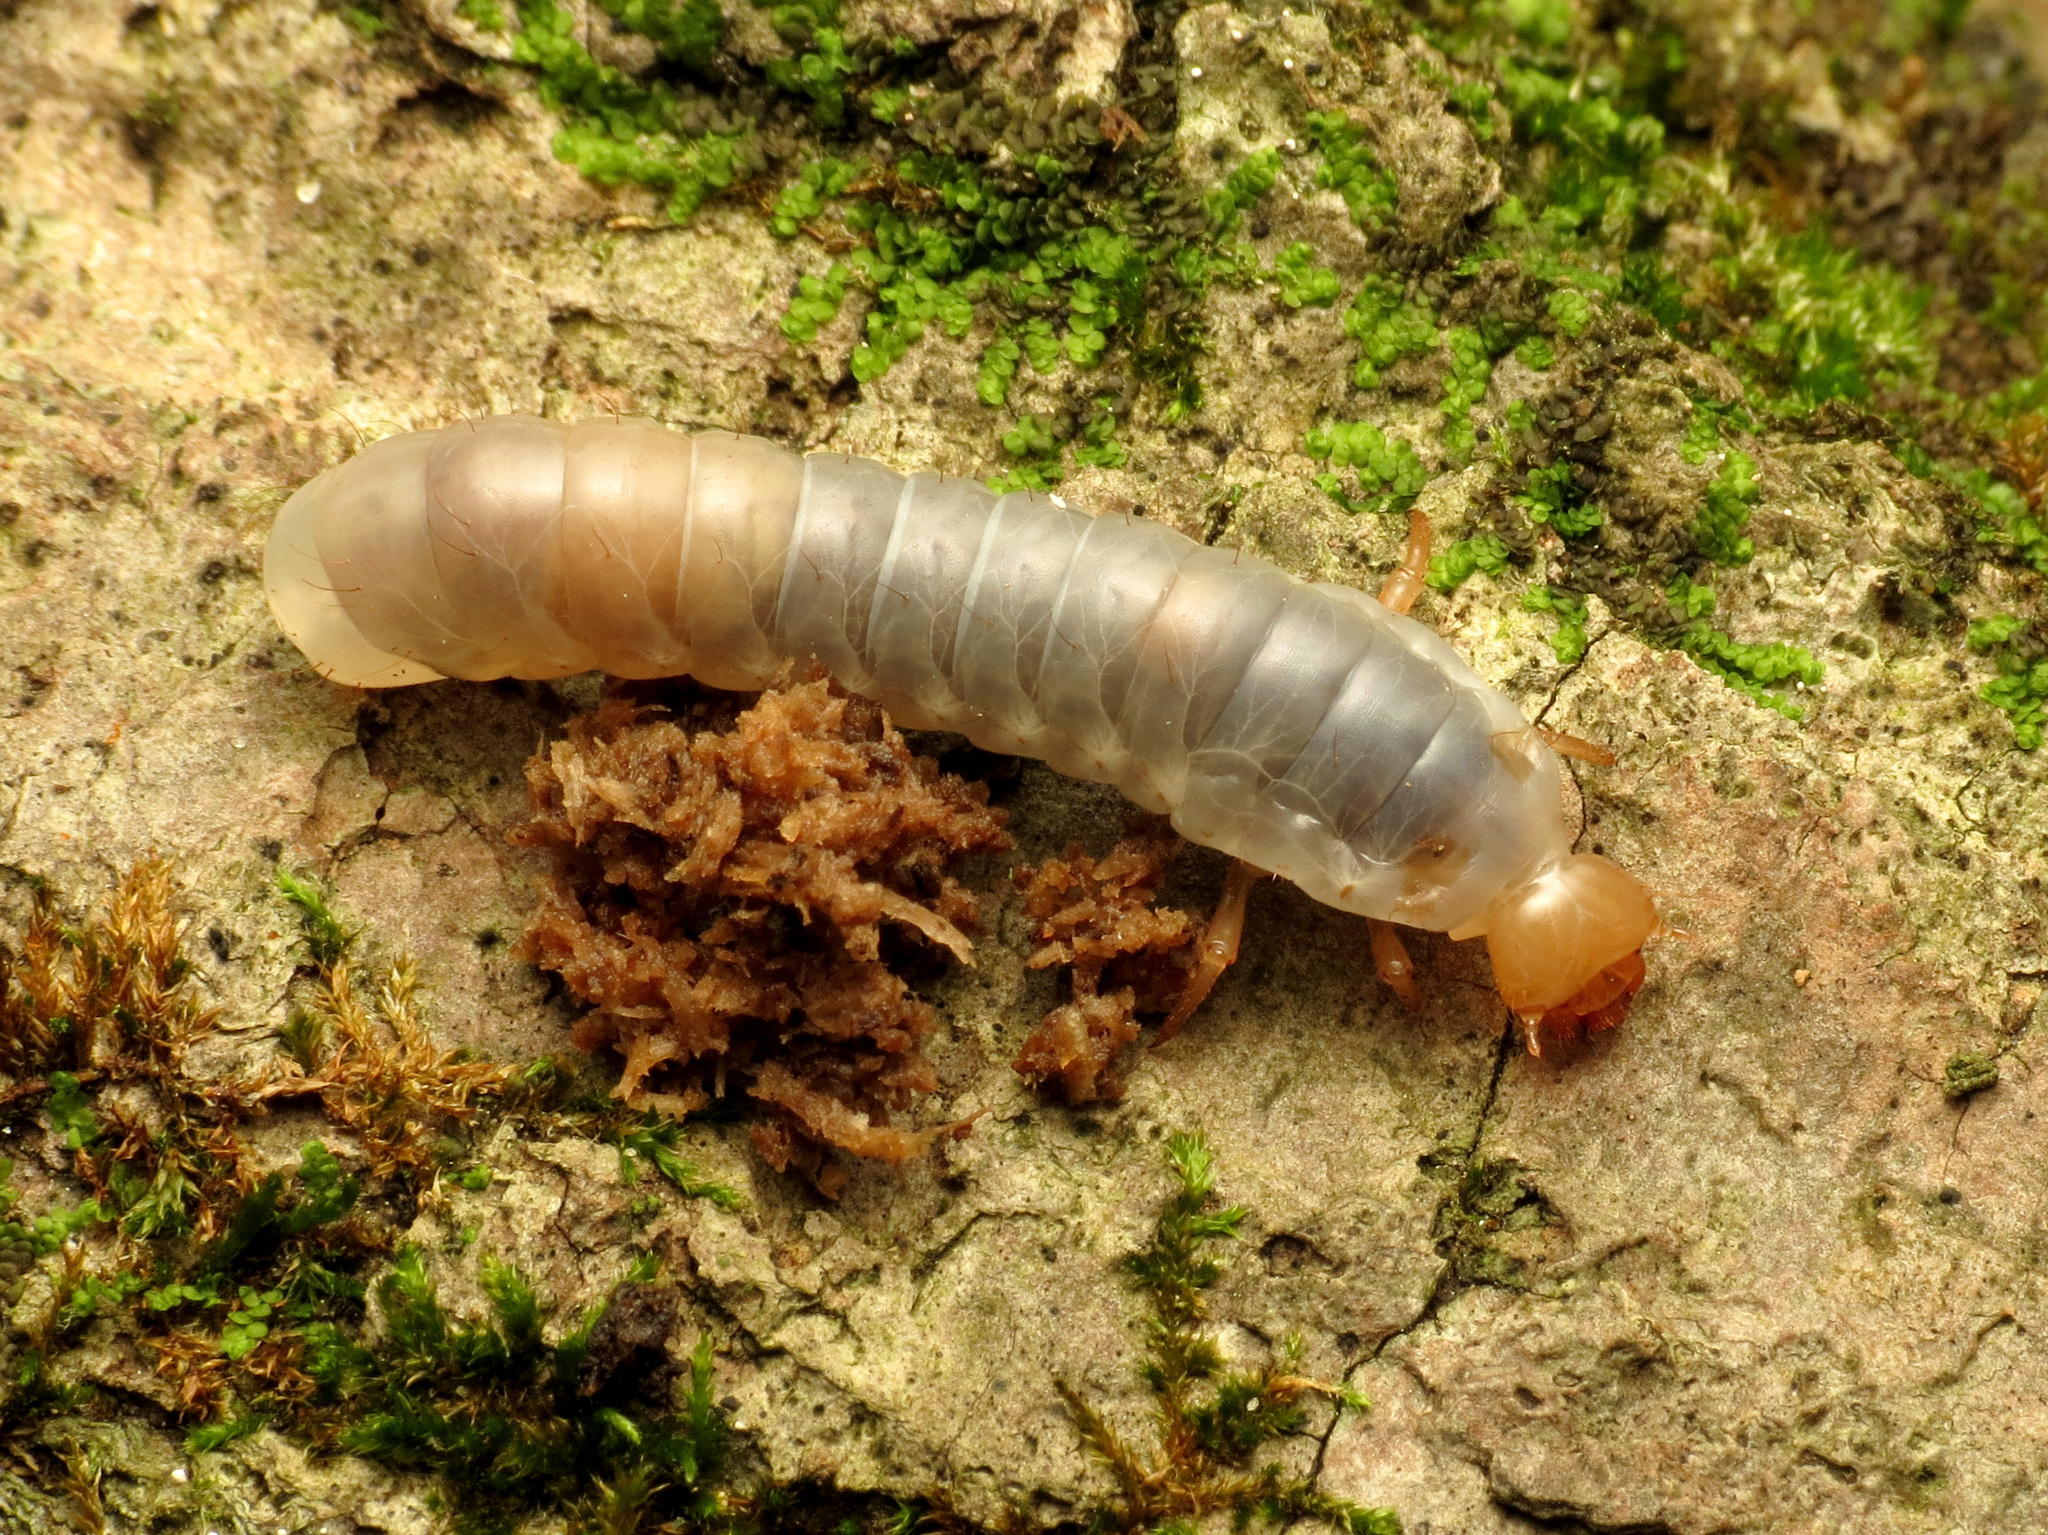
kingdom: Animalia
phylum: Arthropoda
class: Insecta
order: Coleoptera
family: Passalidae
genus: Odontotaenius
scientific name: Odontotaenius disjunctus
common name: Patent leather beetle
